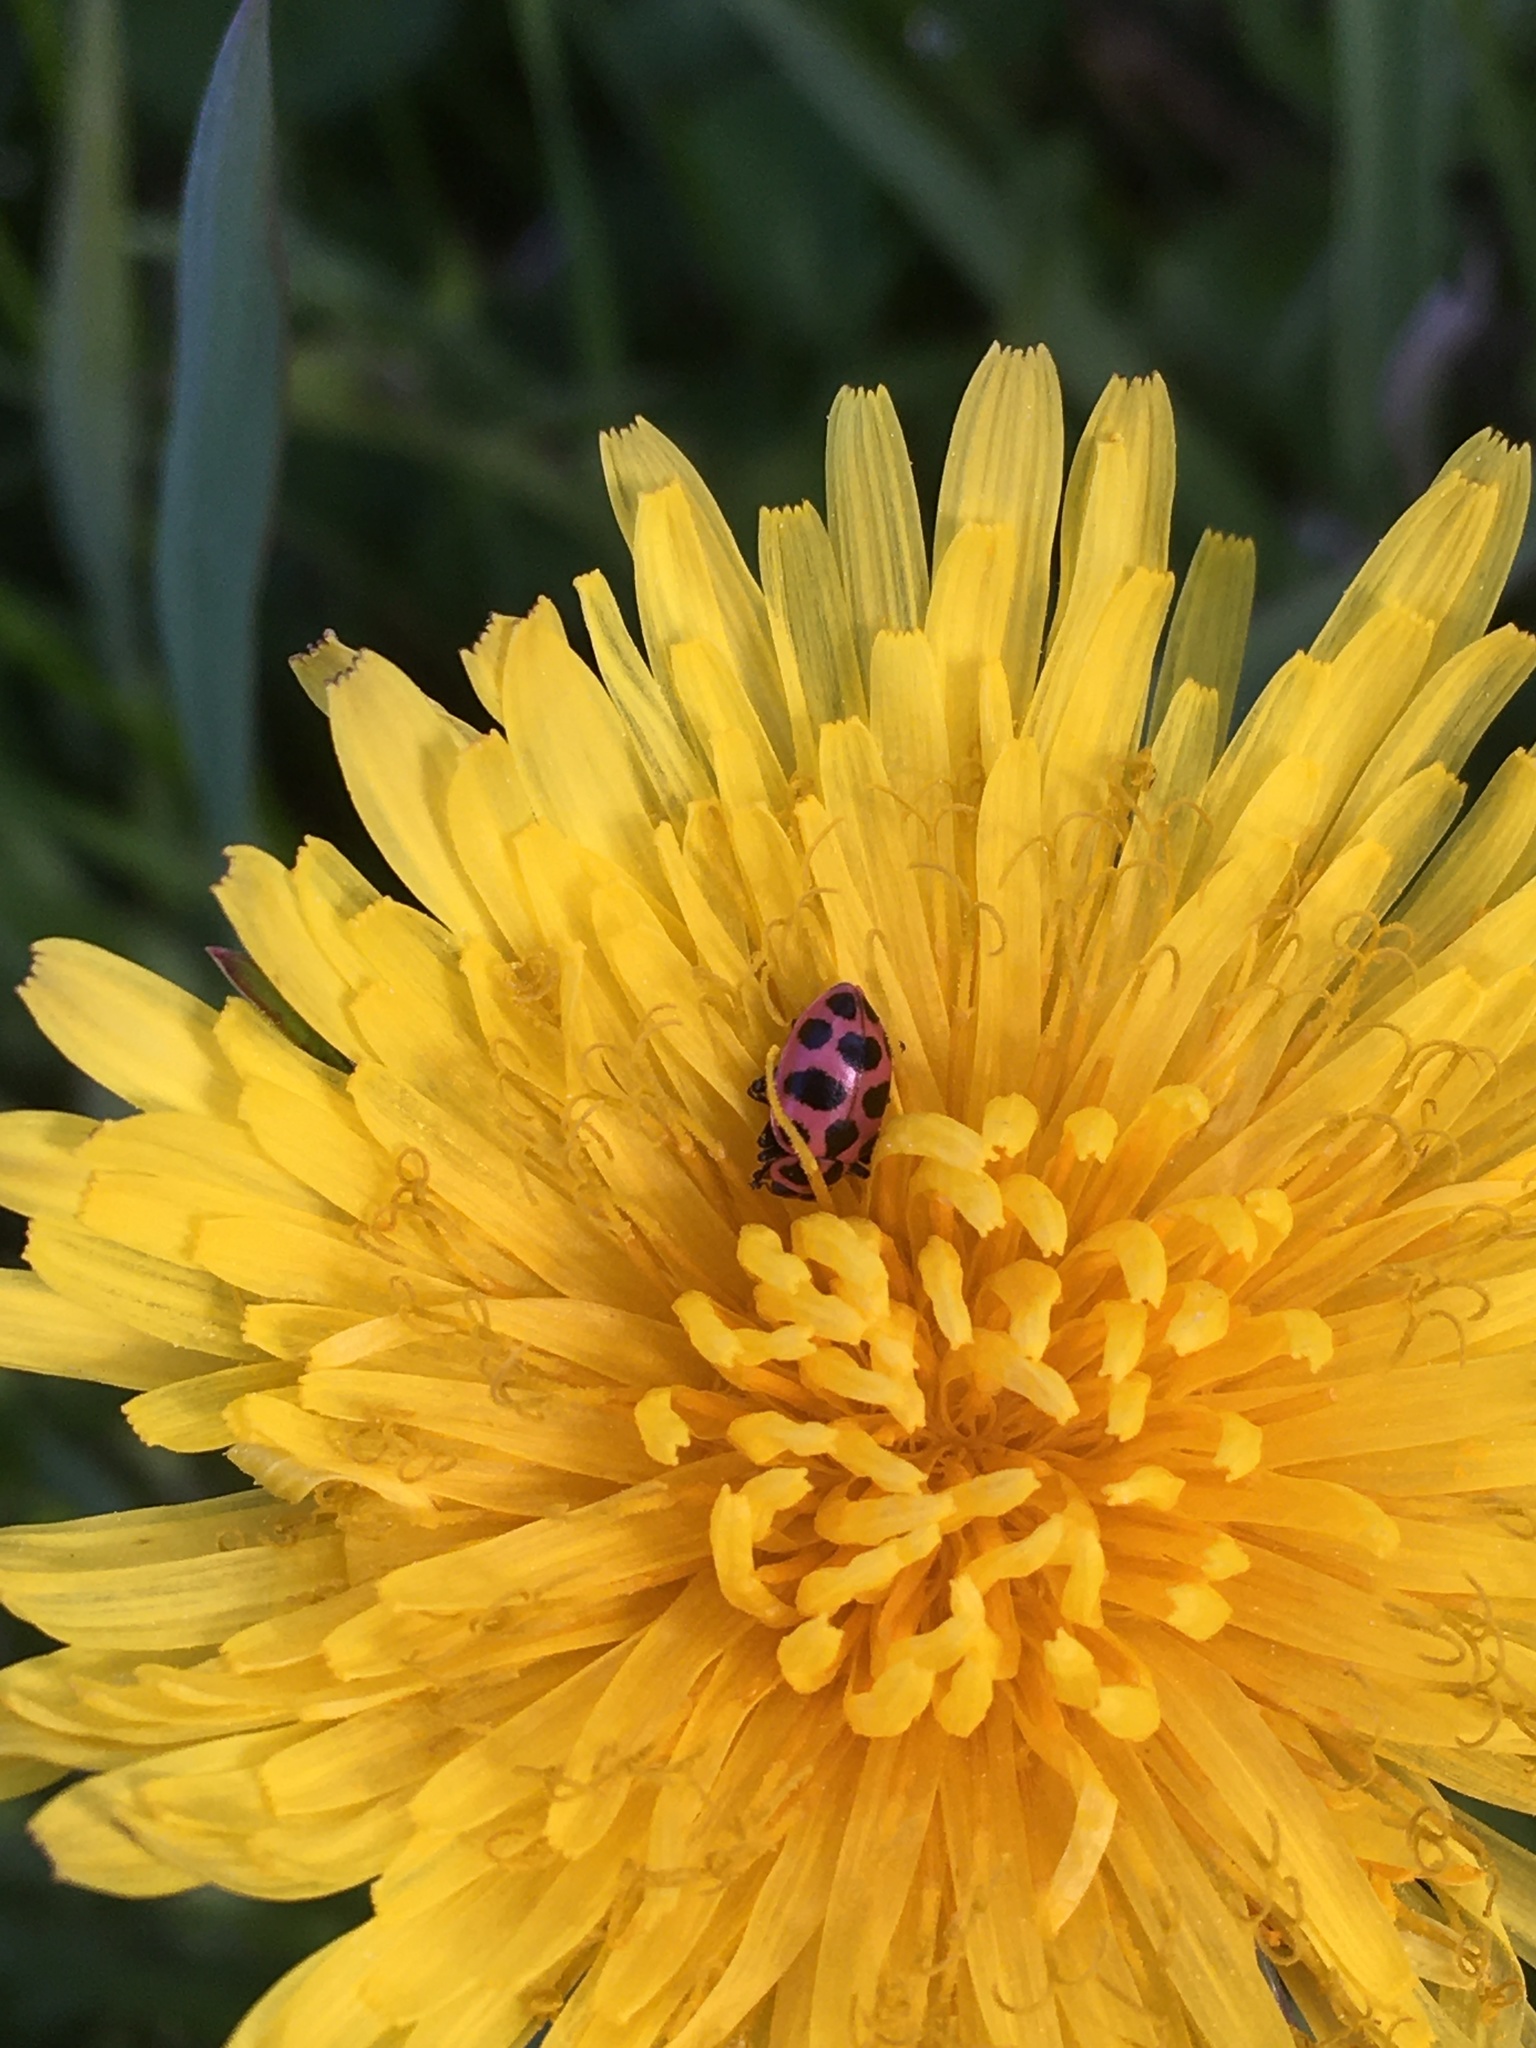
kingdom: Animalia
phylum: Arthropoda
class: Insecta
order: Coleoptera
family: Coccinellidae
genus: Coleomegilla
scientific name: Coleomegilla maculata
